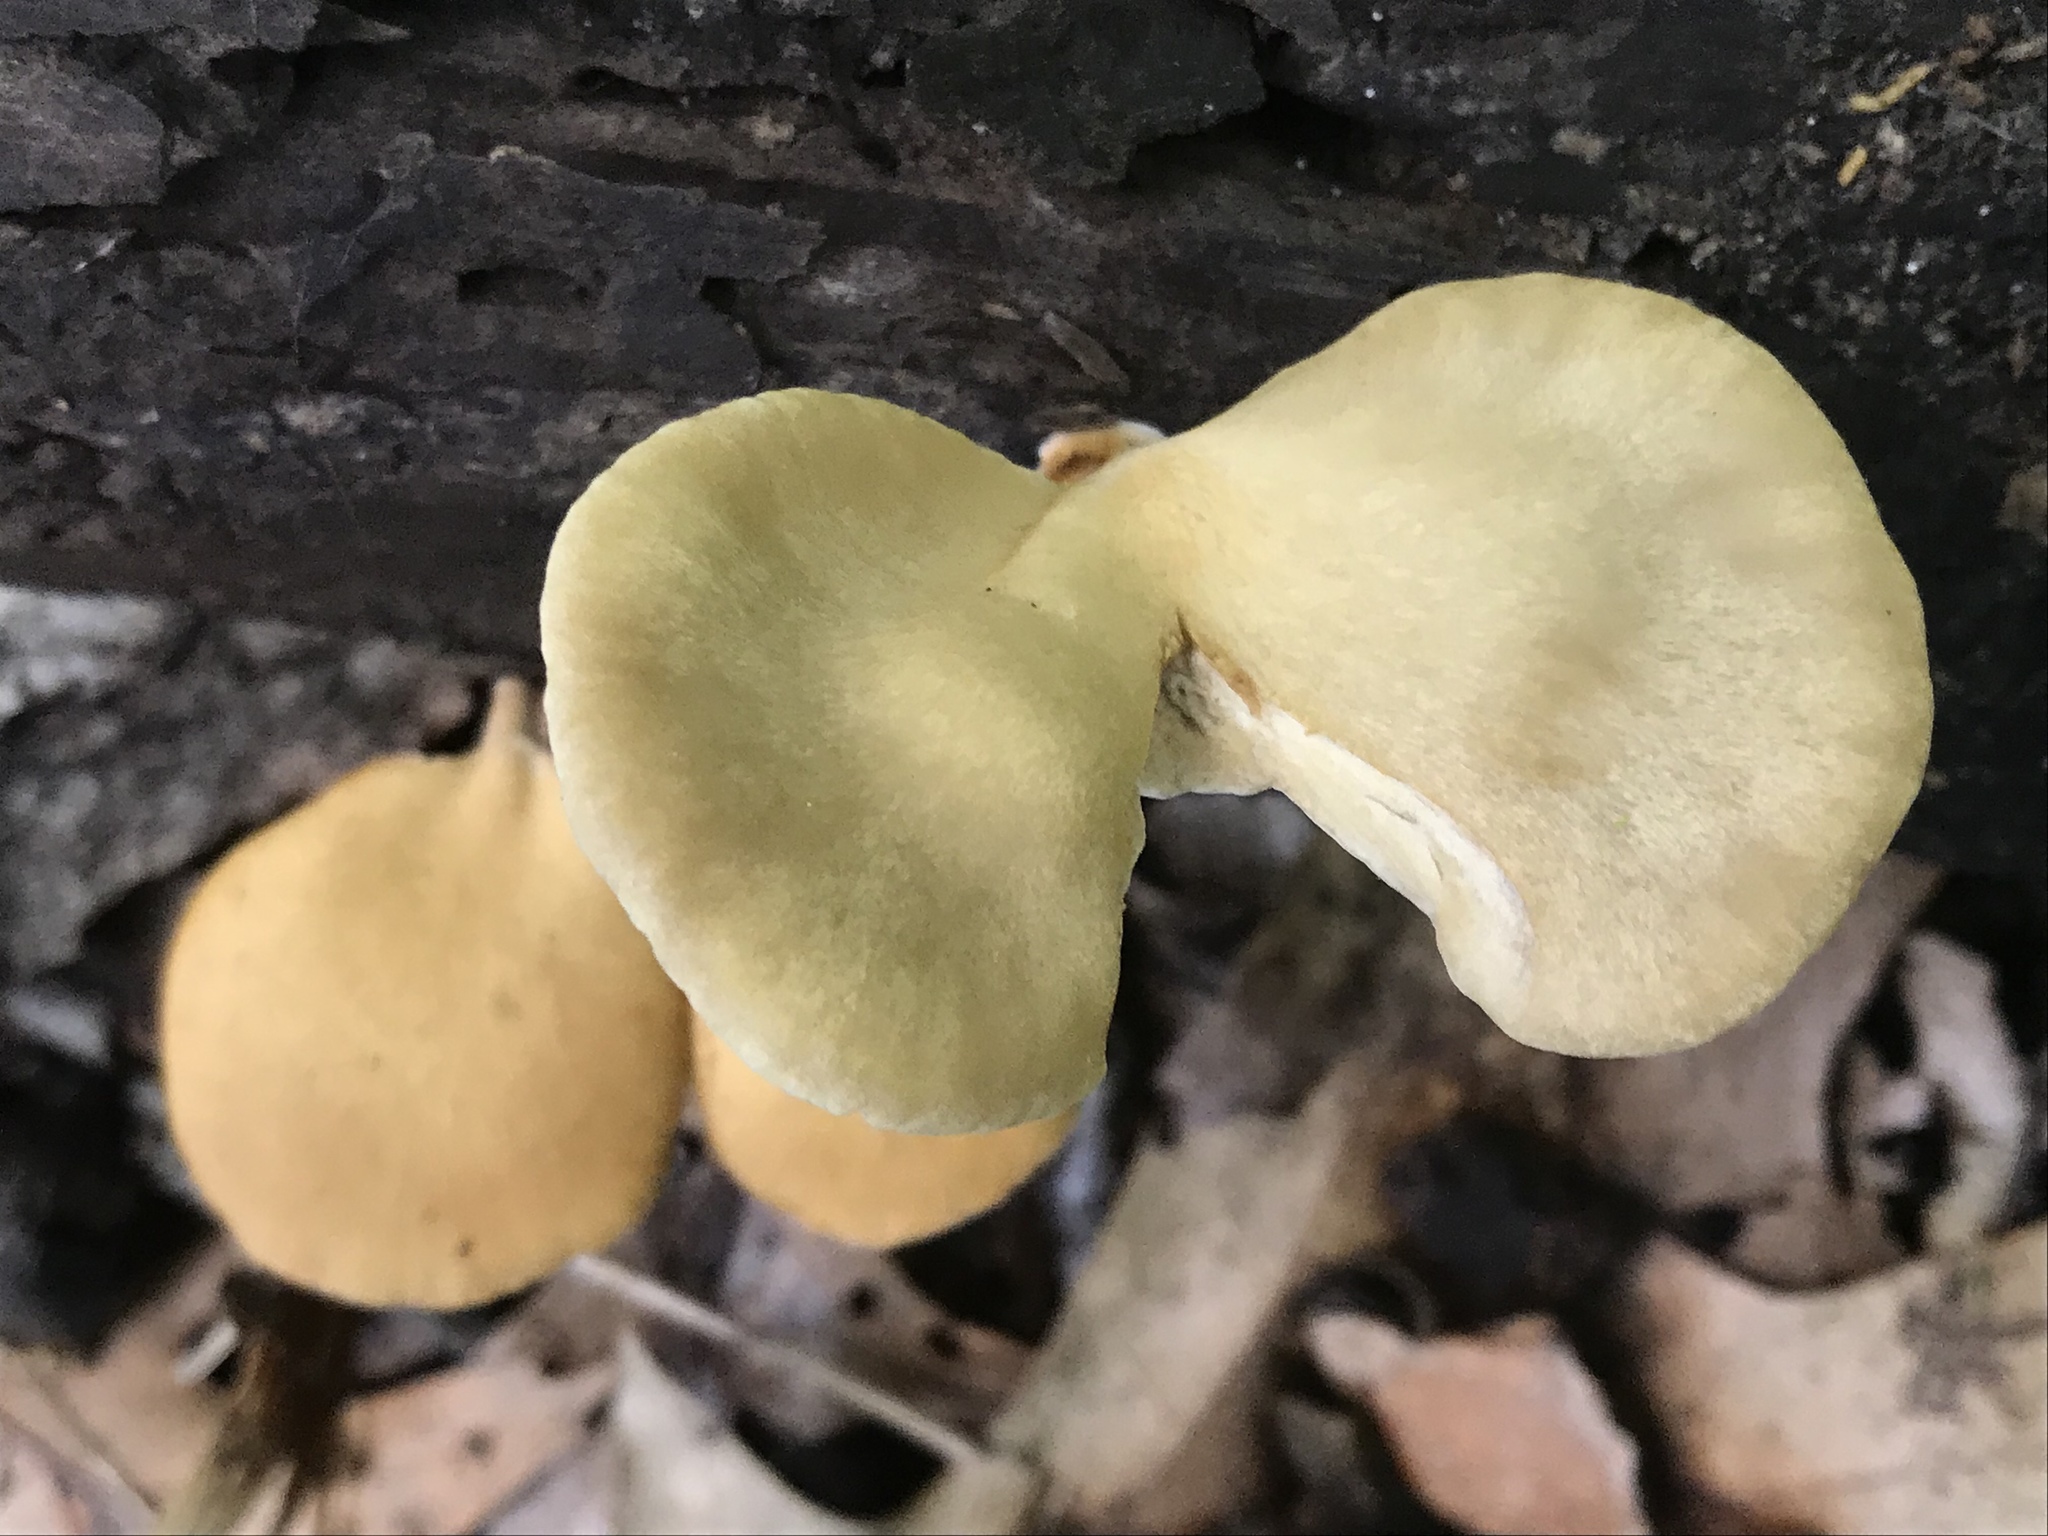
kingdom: Fungi
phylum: Basidiomycota
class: Agaricomycetes
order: Polyporales
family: Polyporaceae
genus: Cerioporus
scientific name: Cerioporus varius
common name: Elegant polypore
